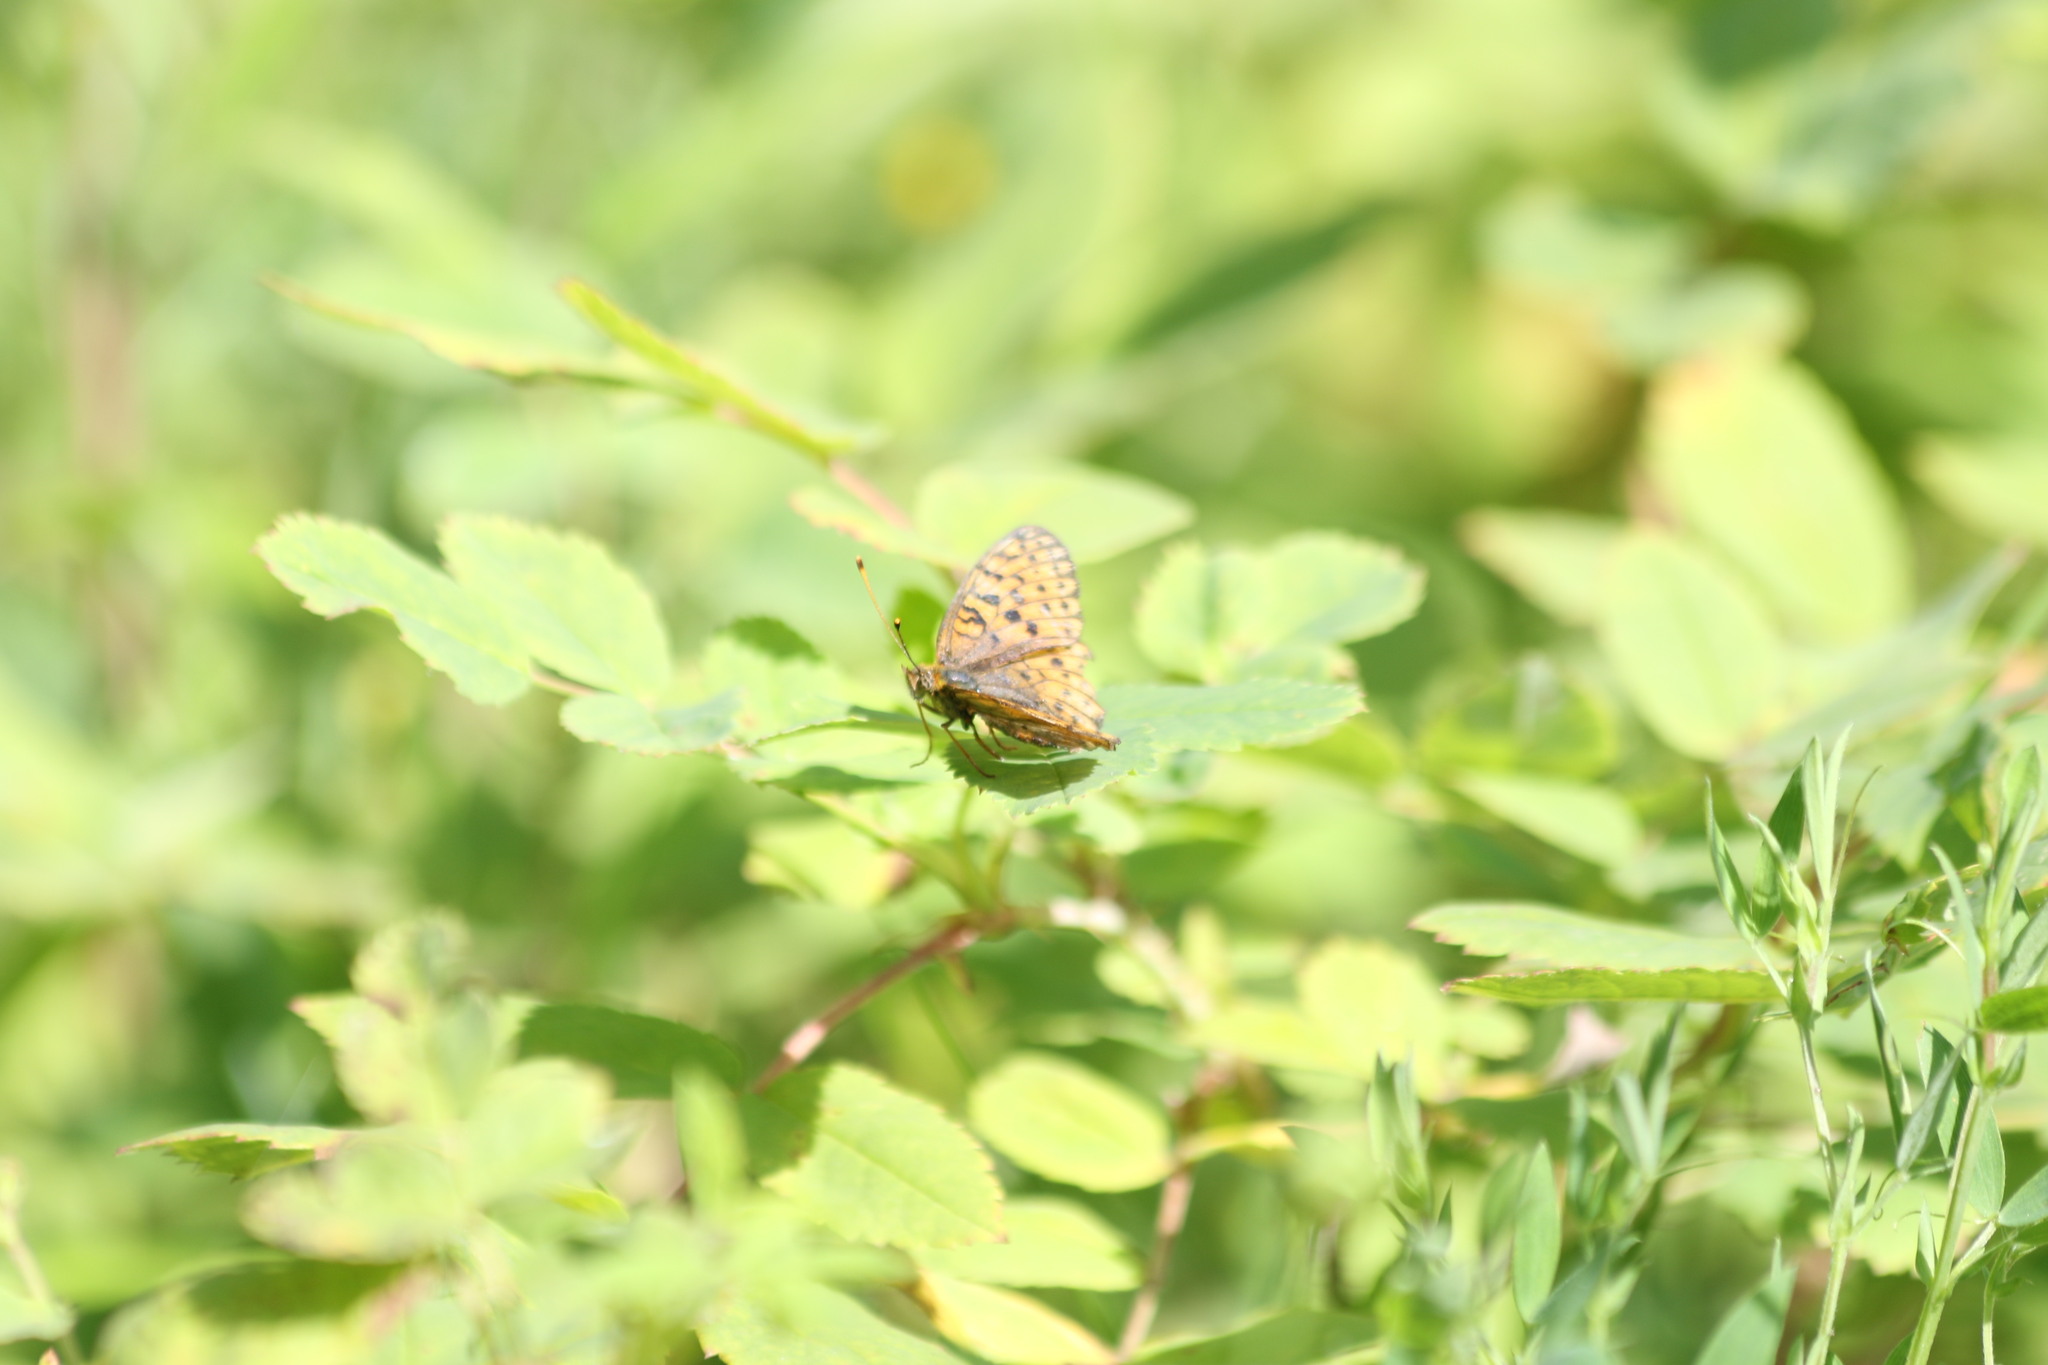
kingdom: Animalia
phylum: Arthropoda
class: Insecta
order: Lepidoptera
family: Nymphalidae
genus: Brenthis
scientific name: Brenthis ino
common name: Lesser marbled fritillary
